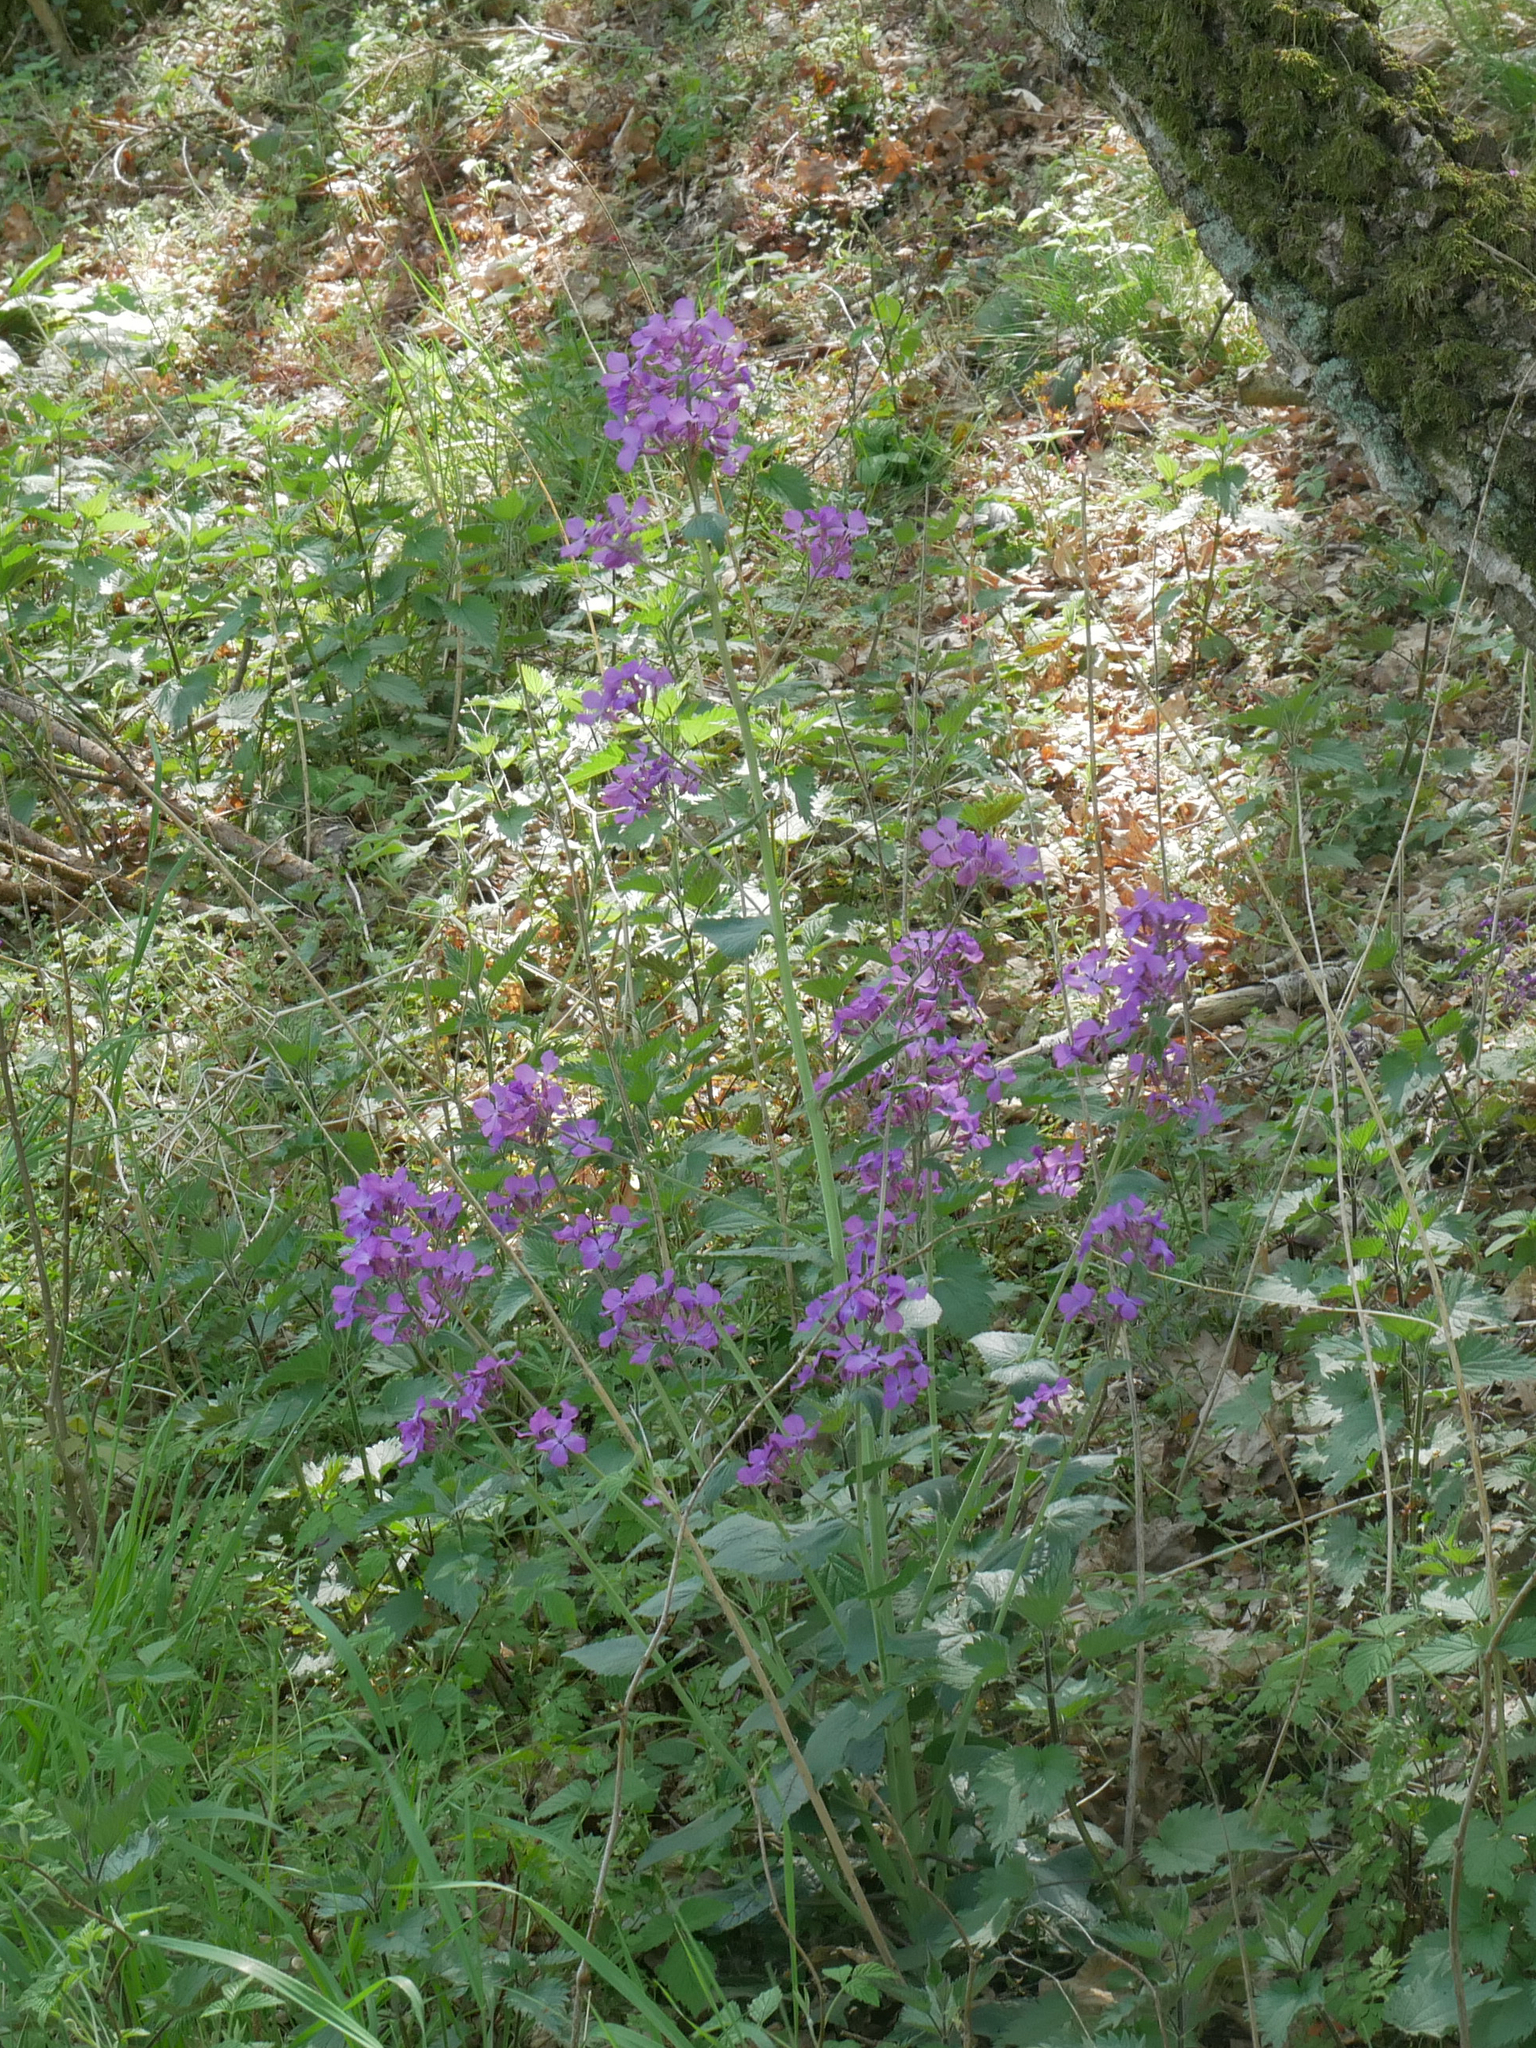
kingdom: Plantae
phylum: Tracheophyta
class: Magnoliopsida
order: Brassicales
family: Brassicaceae
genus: Lunaria
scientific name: Lunaria annua
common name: Honesty
